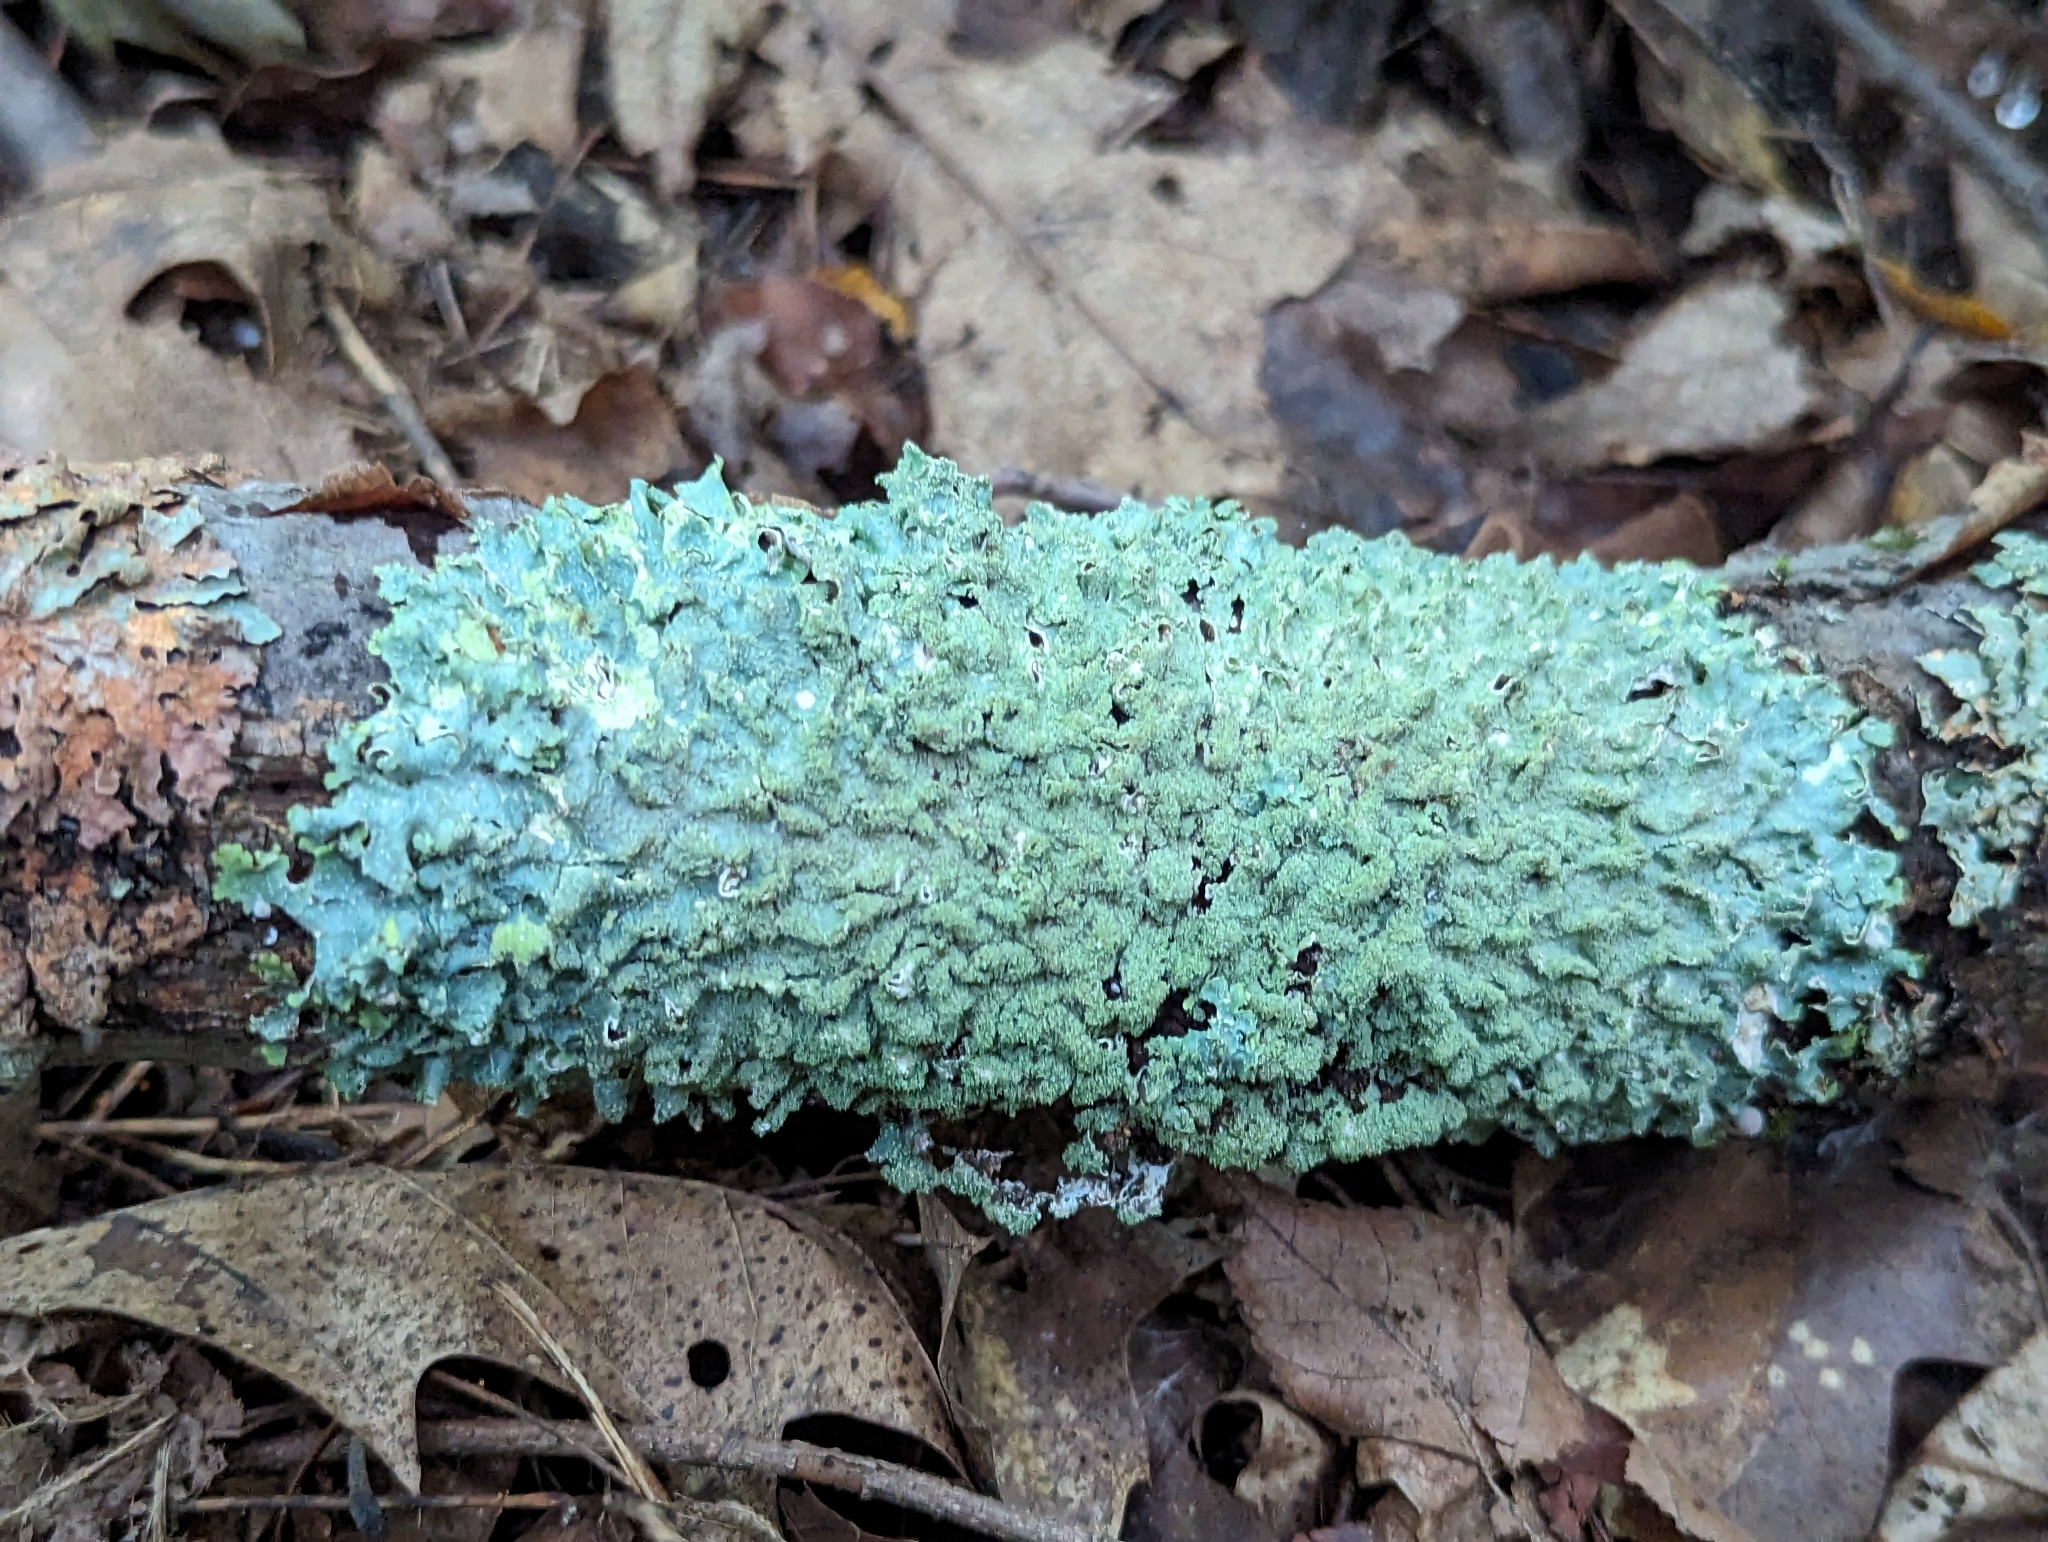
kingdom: Fungi
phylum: Ascomycota
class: Lecanoromycetes
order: Lecanorales
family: Parmeliaceae
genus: Punctelia
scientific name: Punctelia missouriensis
